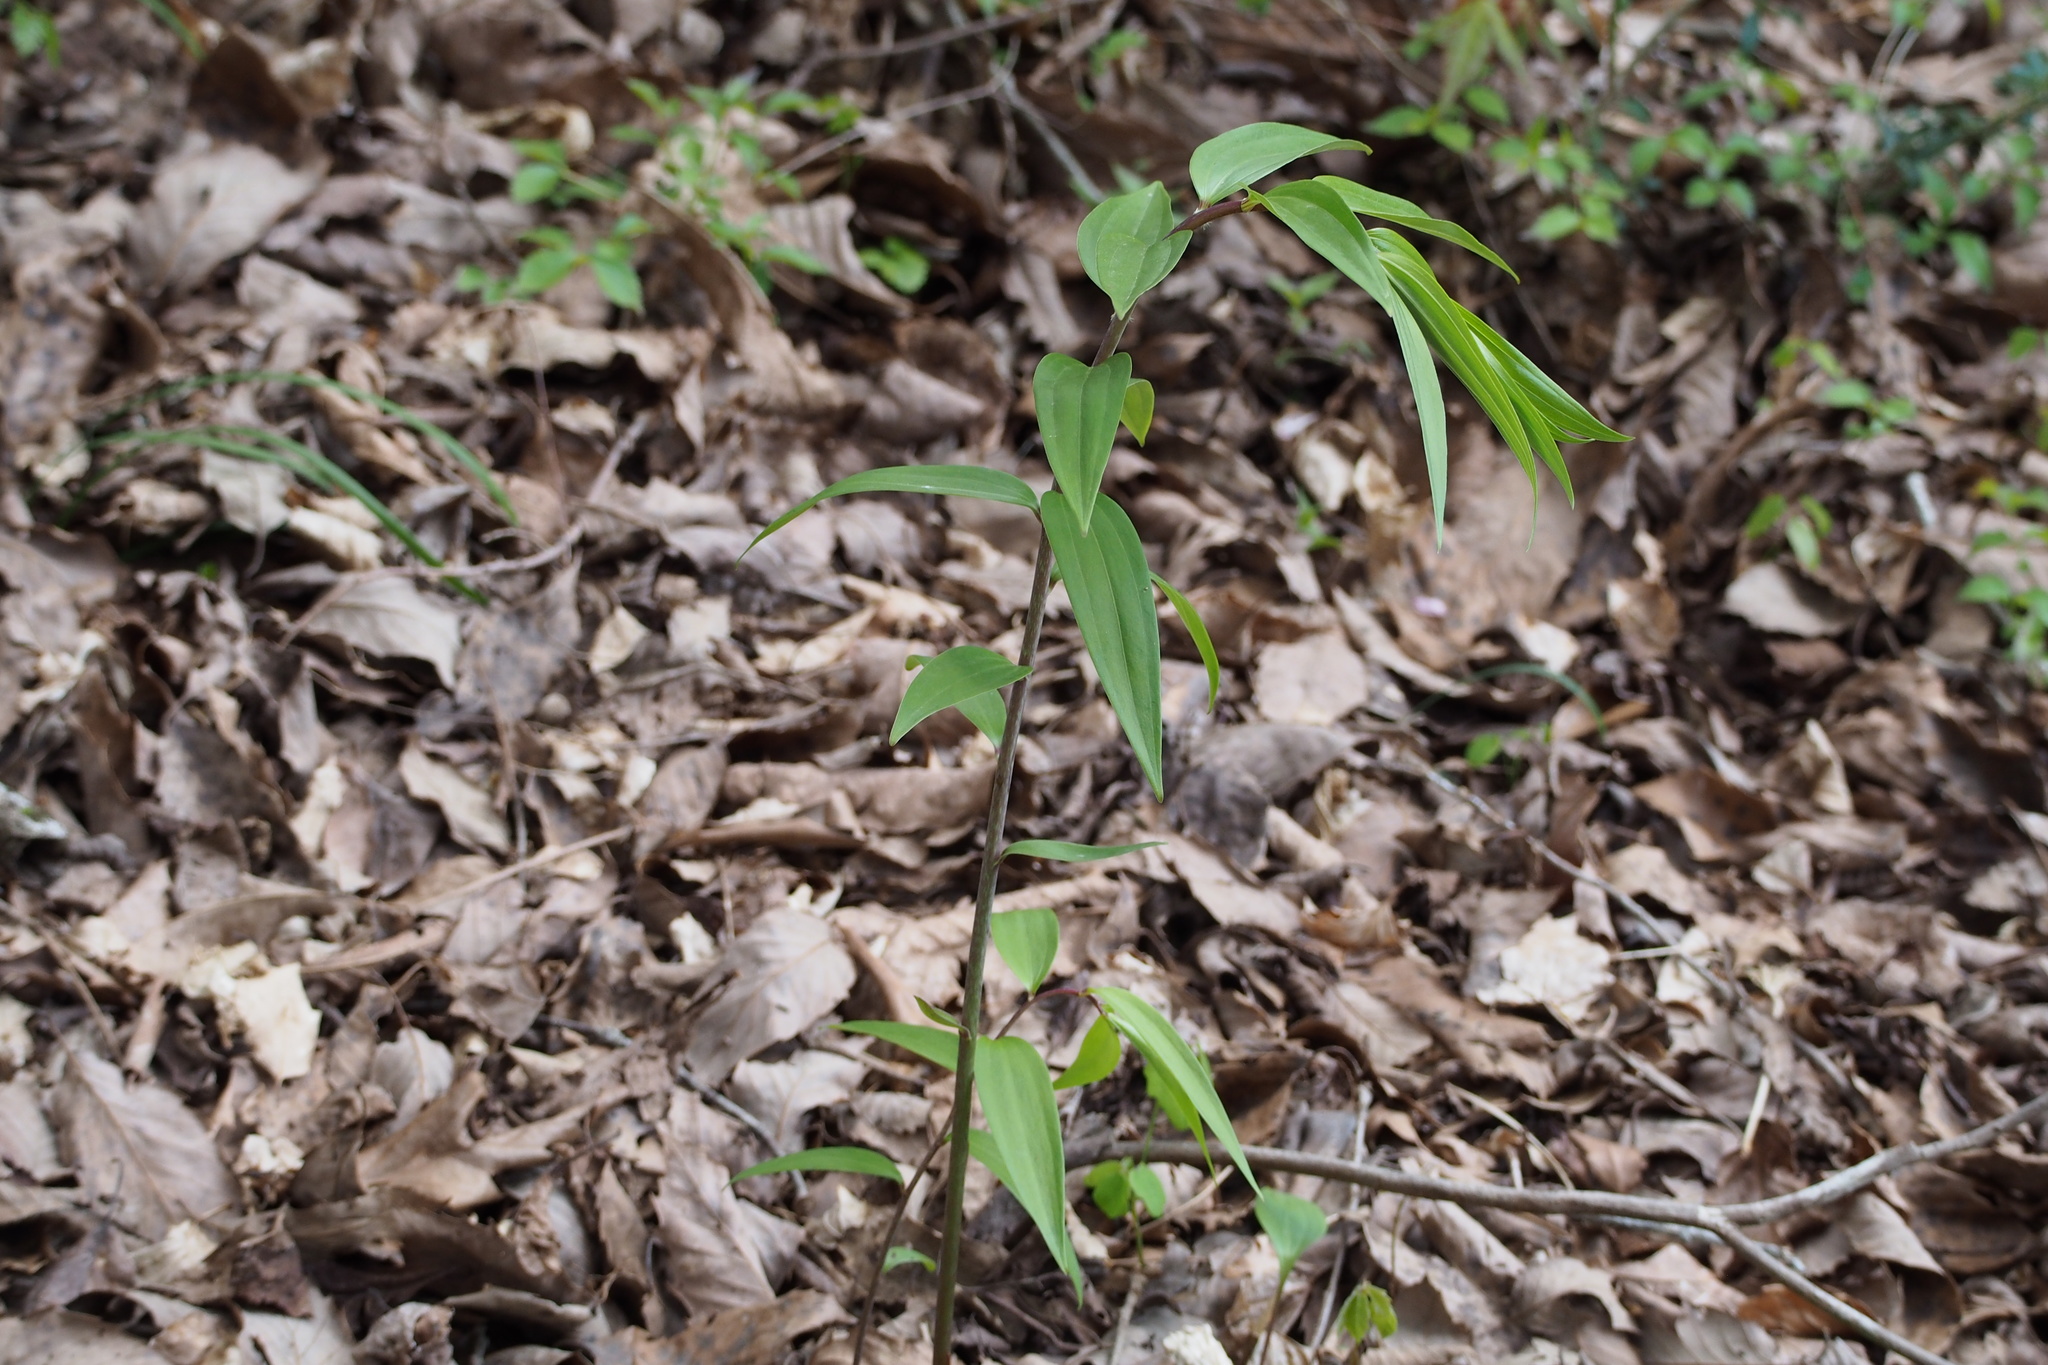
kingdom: Plantae
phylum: Tracheophyta
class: Liliopsida
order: Liliales
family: Liliaceae
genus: Lilium
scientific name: Lilium auratum
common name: Golden-ray lily
